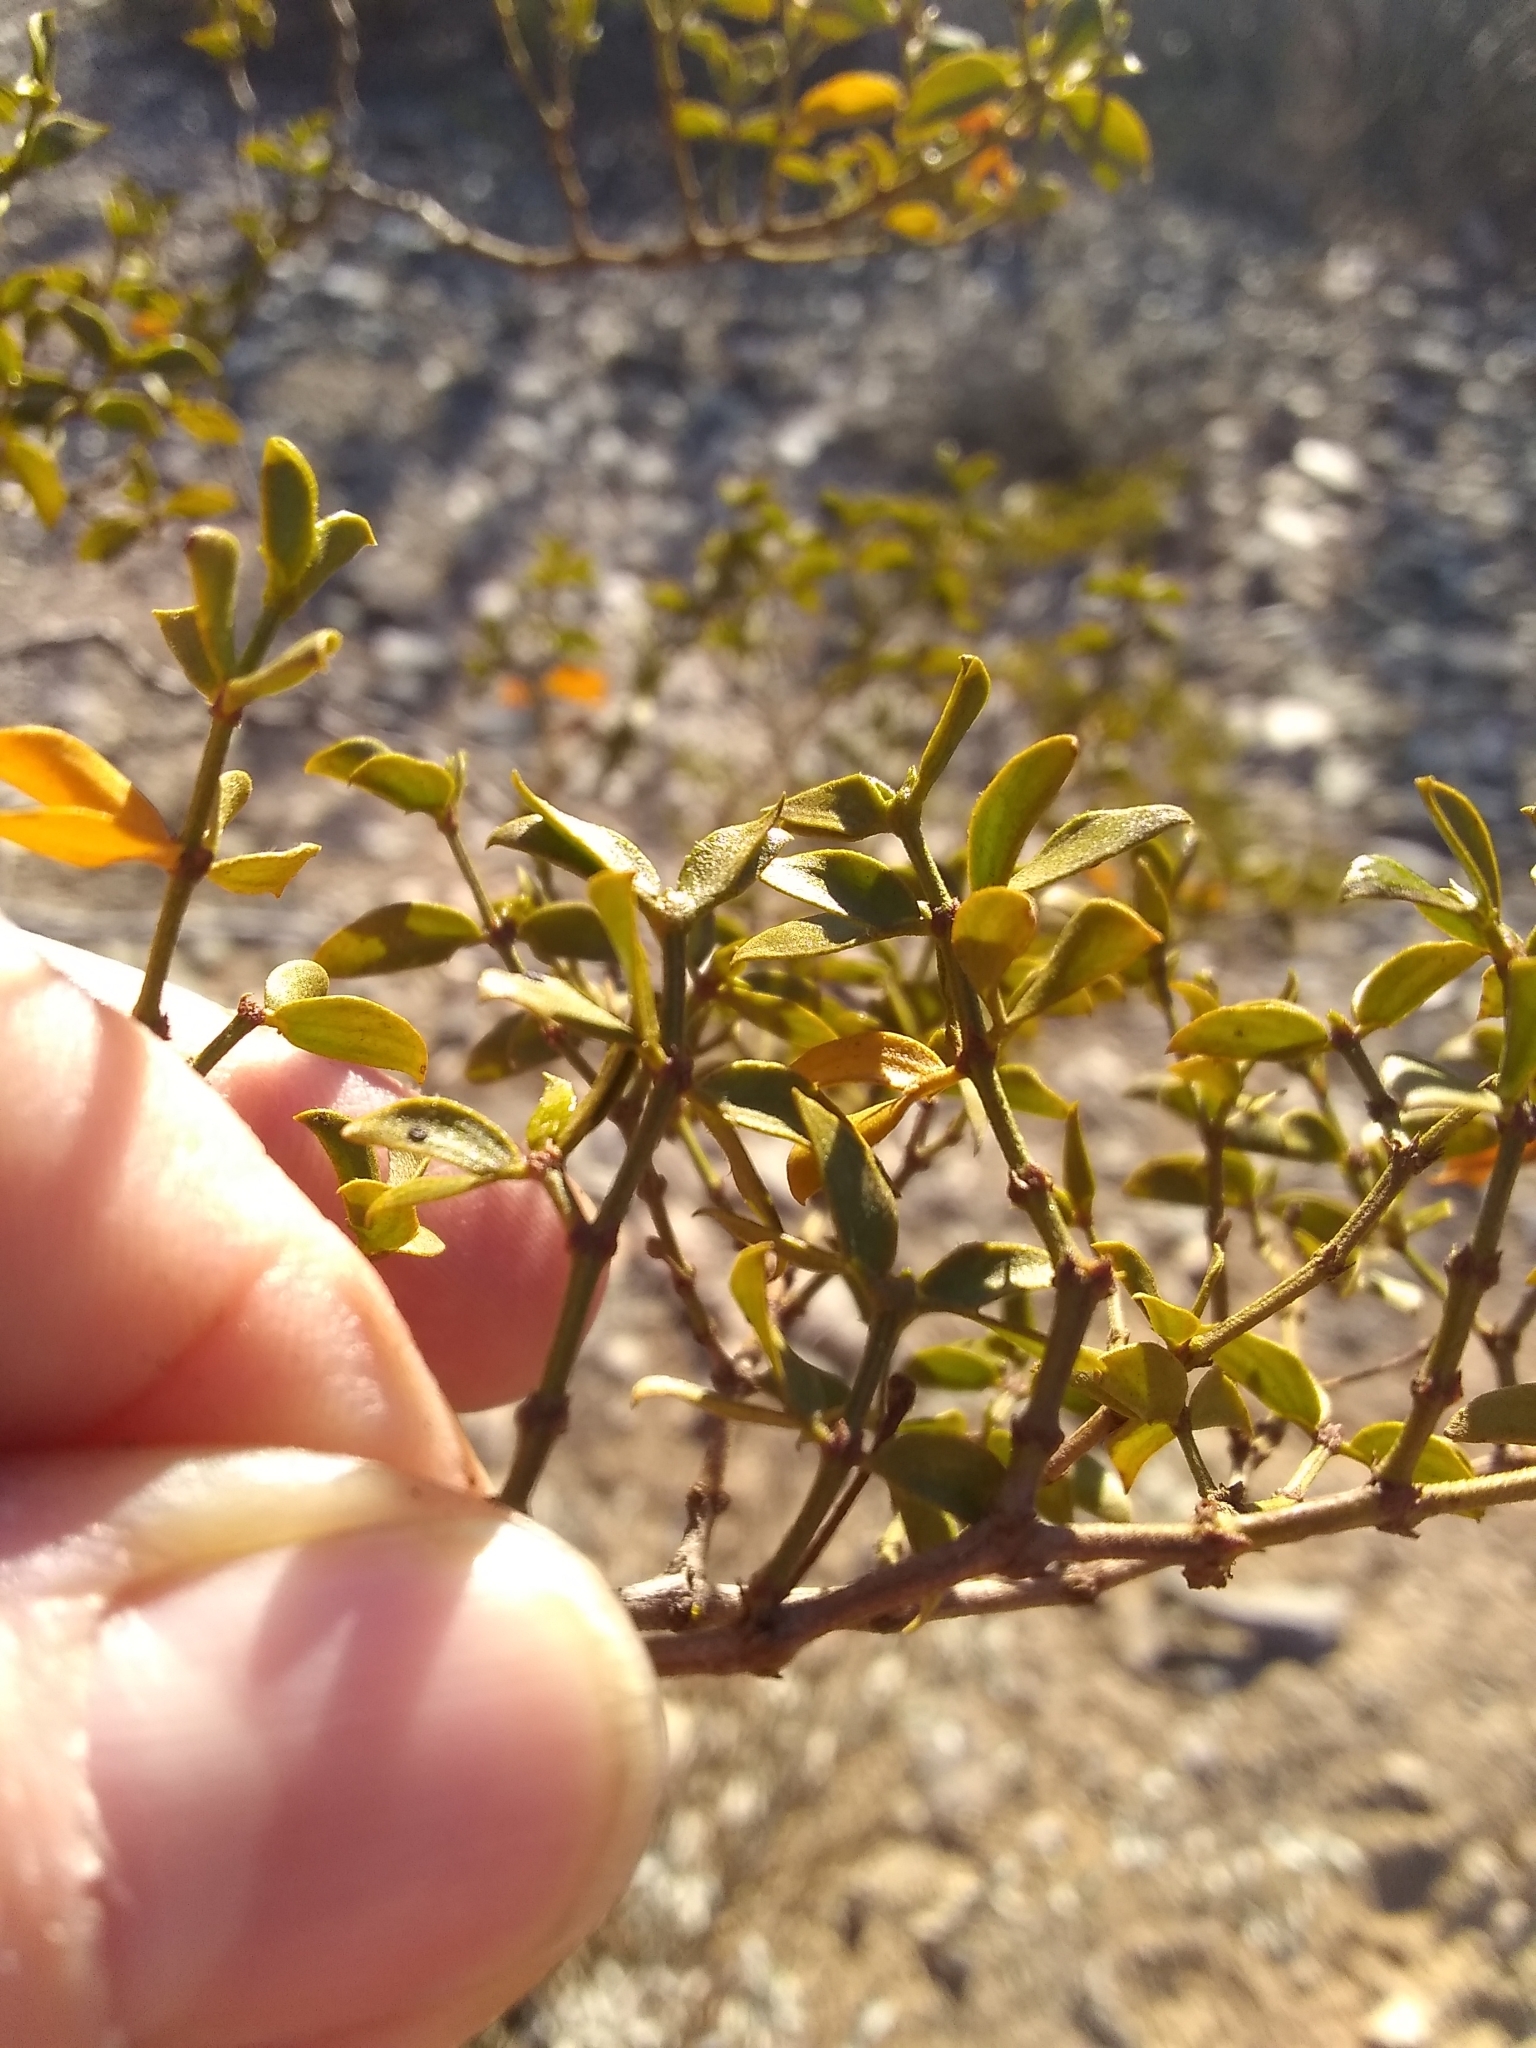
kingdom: Plantae
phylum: Tracheophyta
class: Magnoliopsida
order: Zygophyllales
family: Zygophyllaceae
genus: Larrea
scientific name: Larrea tridentata
